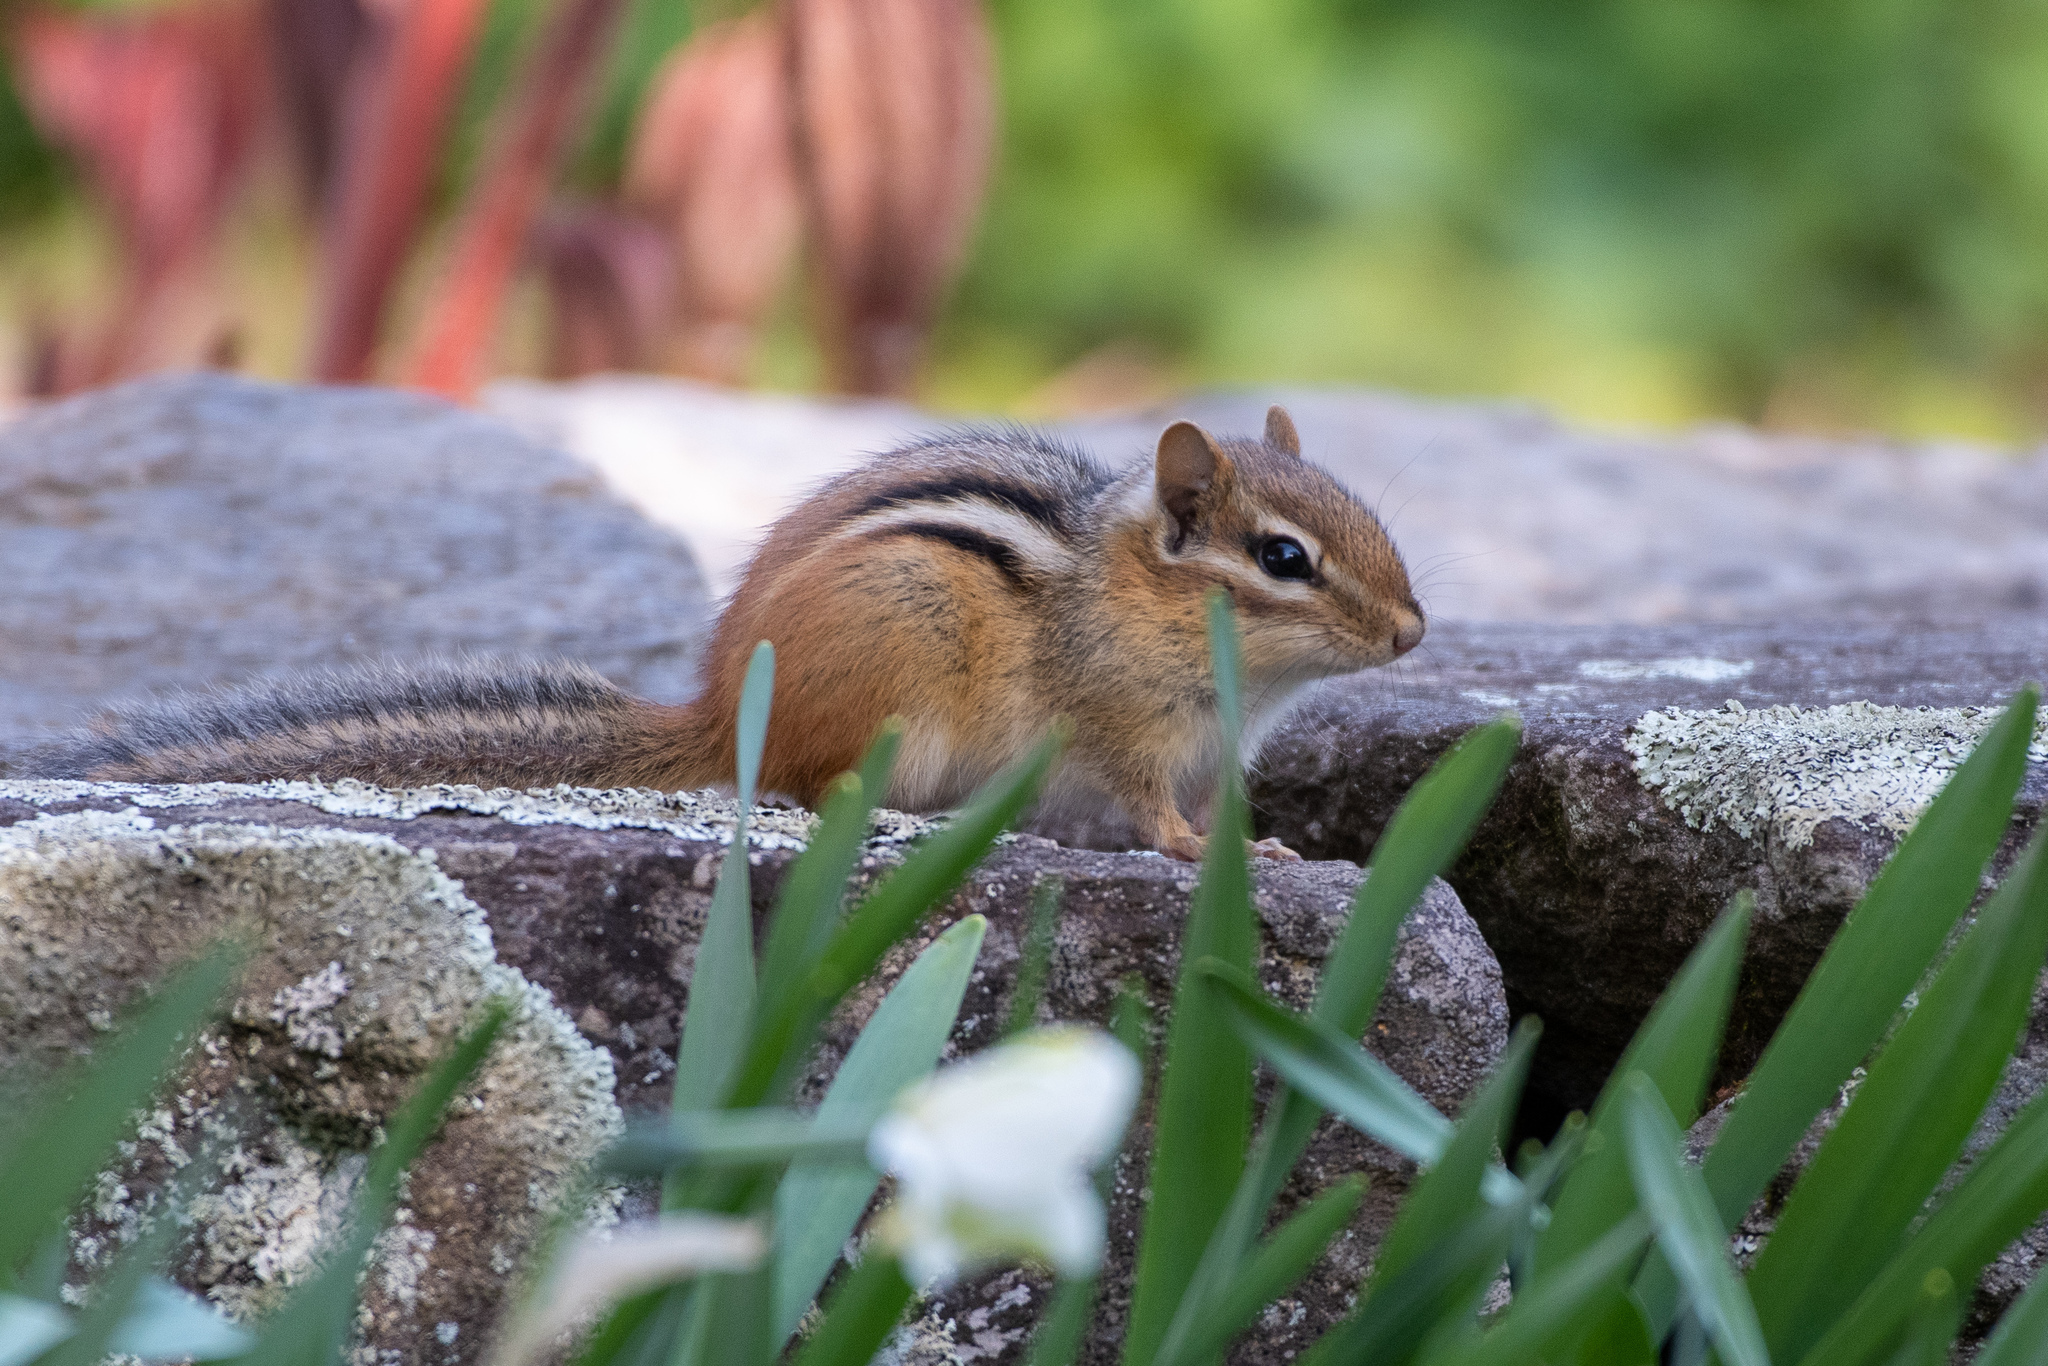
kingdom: Animalia
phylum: Chordata
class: Mammalia
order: Rodentia
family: Sciuridae
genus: Tamias
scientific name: Tamias striatus
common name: Eastern chipmunk
